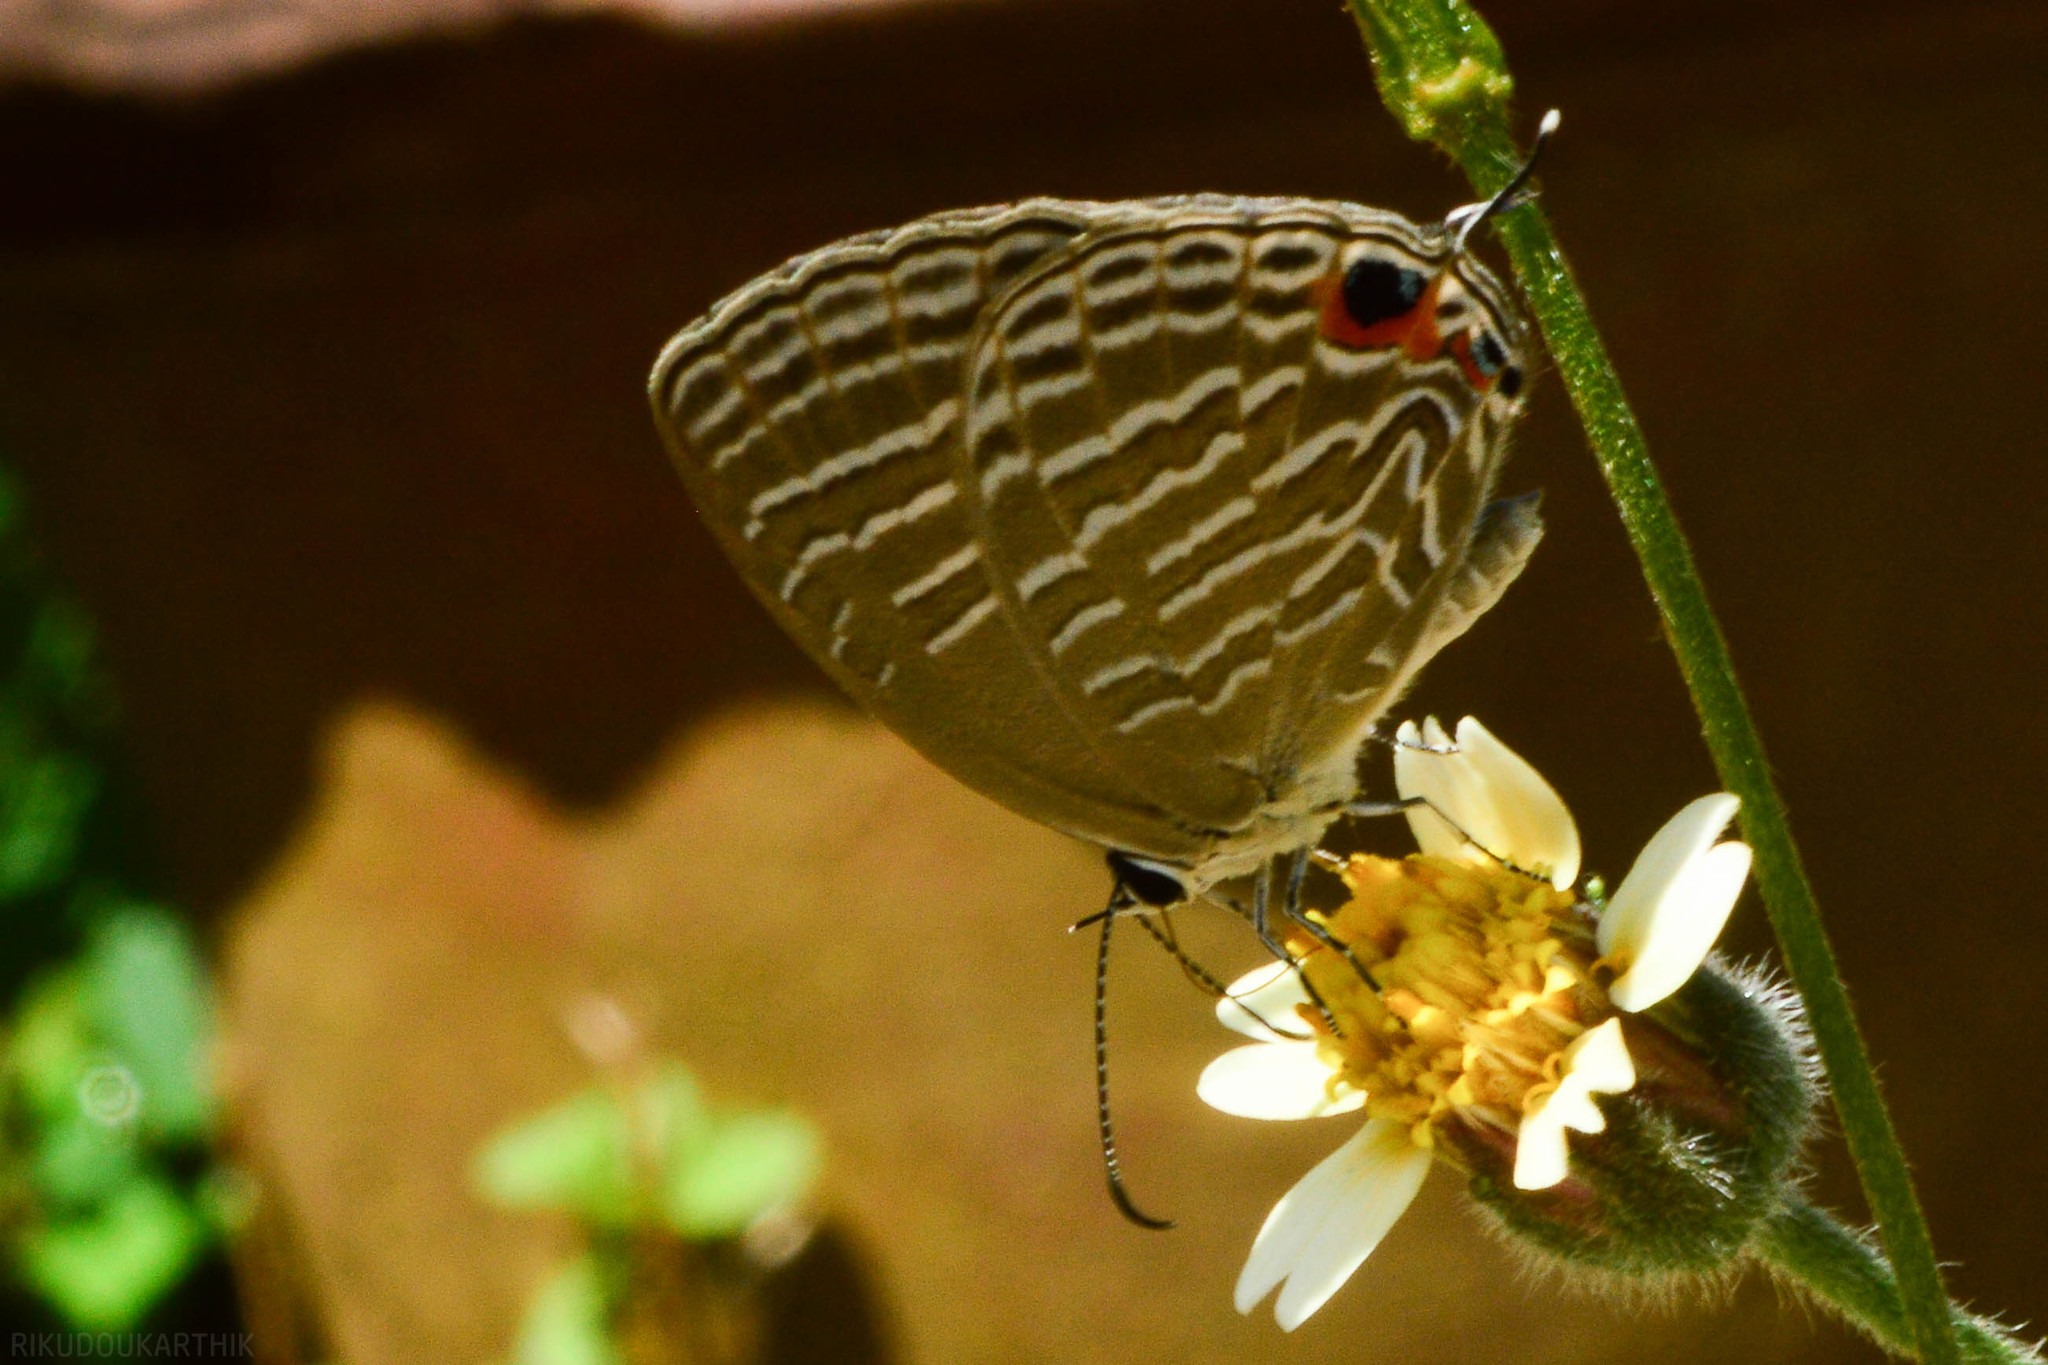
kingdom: Animalia
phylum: Arthropoda
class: Insecta
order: Lepidoptera
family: Lycaenidae
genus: Jamides
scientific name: Jamides celeno
